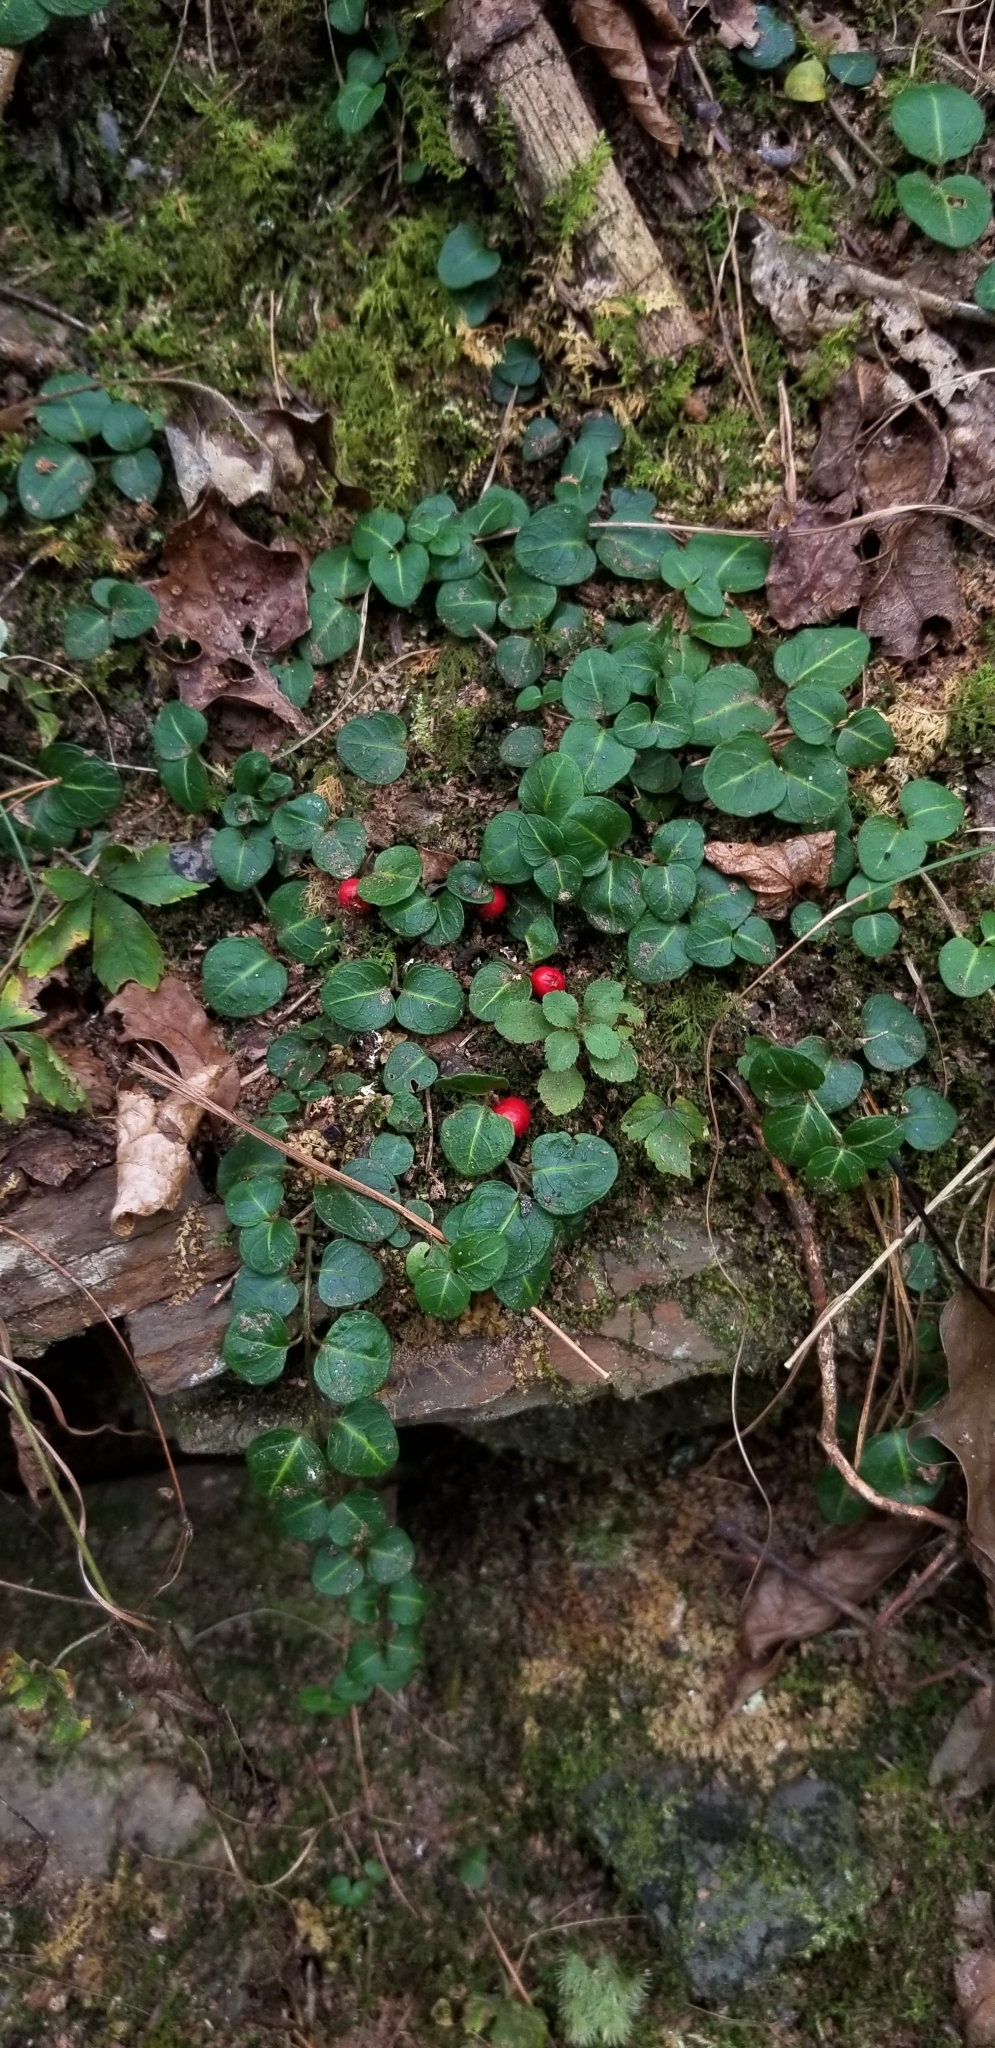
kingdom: Plantae
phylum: Tracheophyta
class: Magnoliopsida
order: Gentianales
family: Rubiaceae
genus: Mitchella
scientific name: Mitchella repens
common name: Partridge-berry
